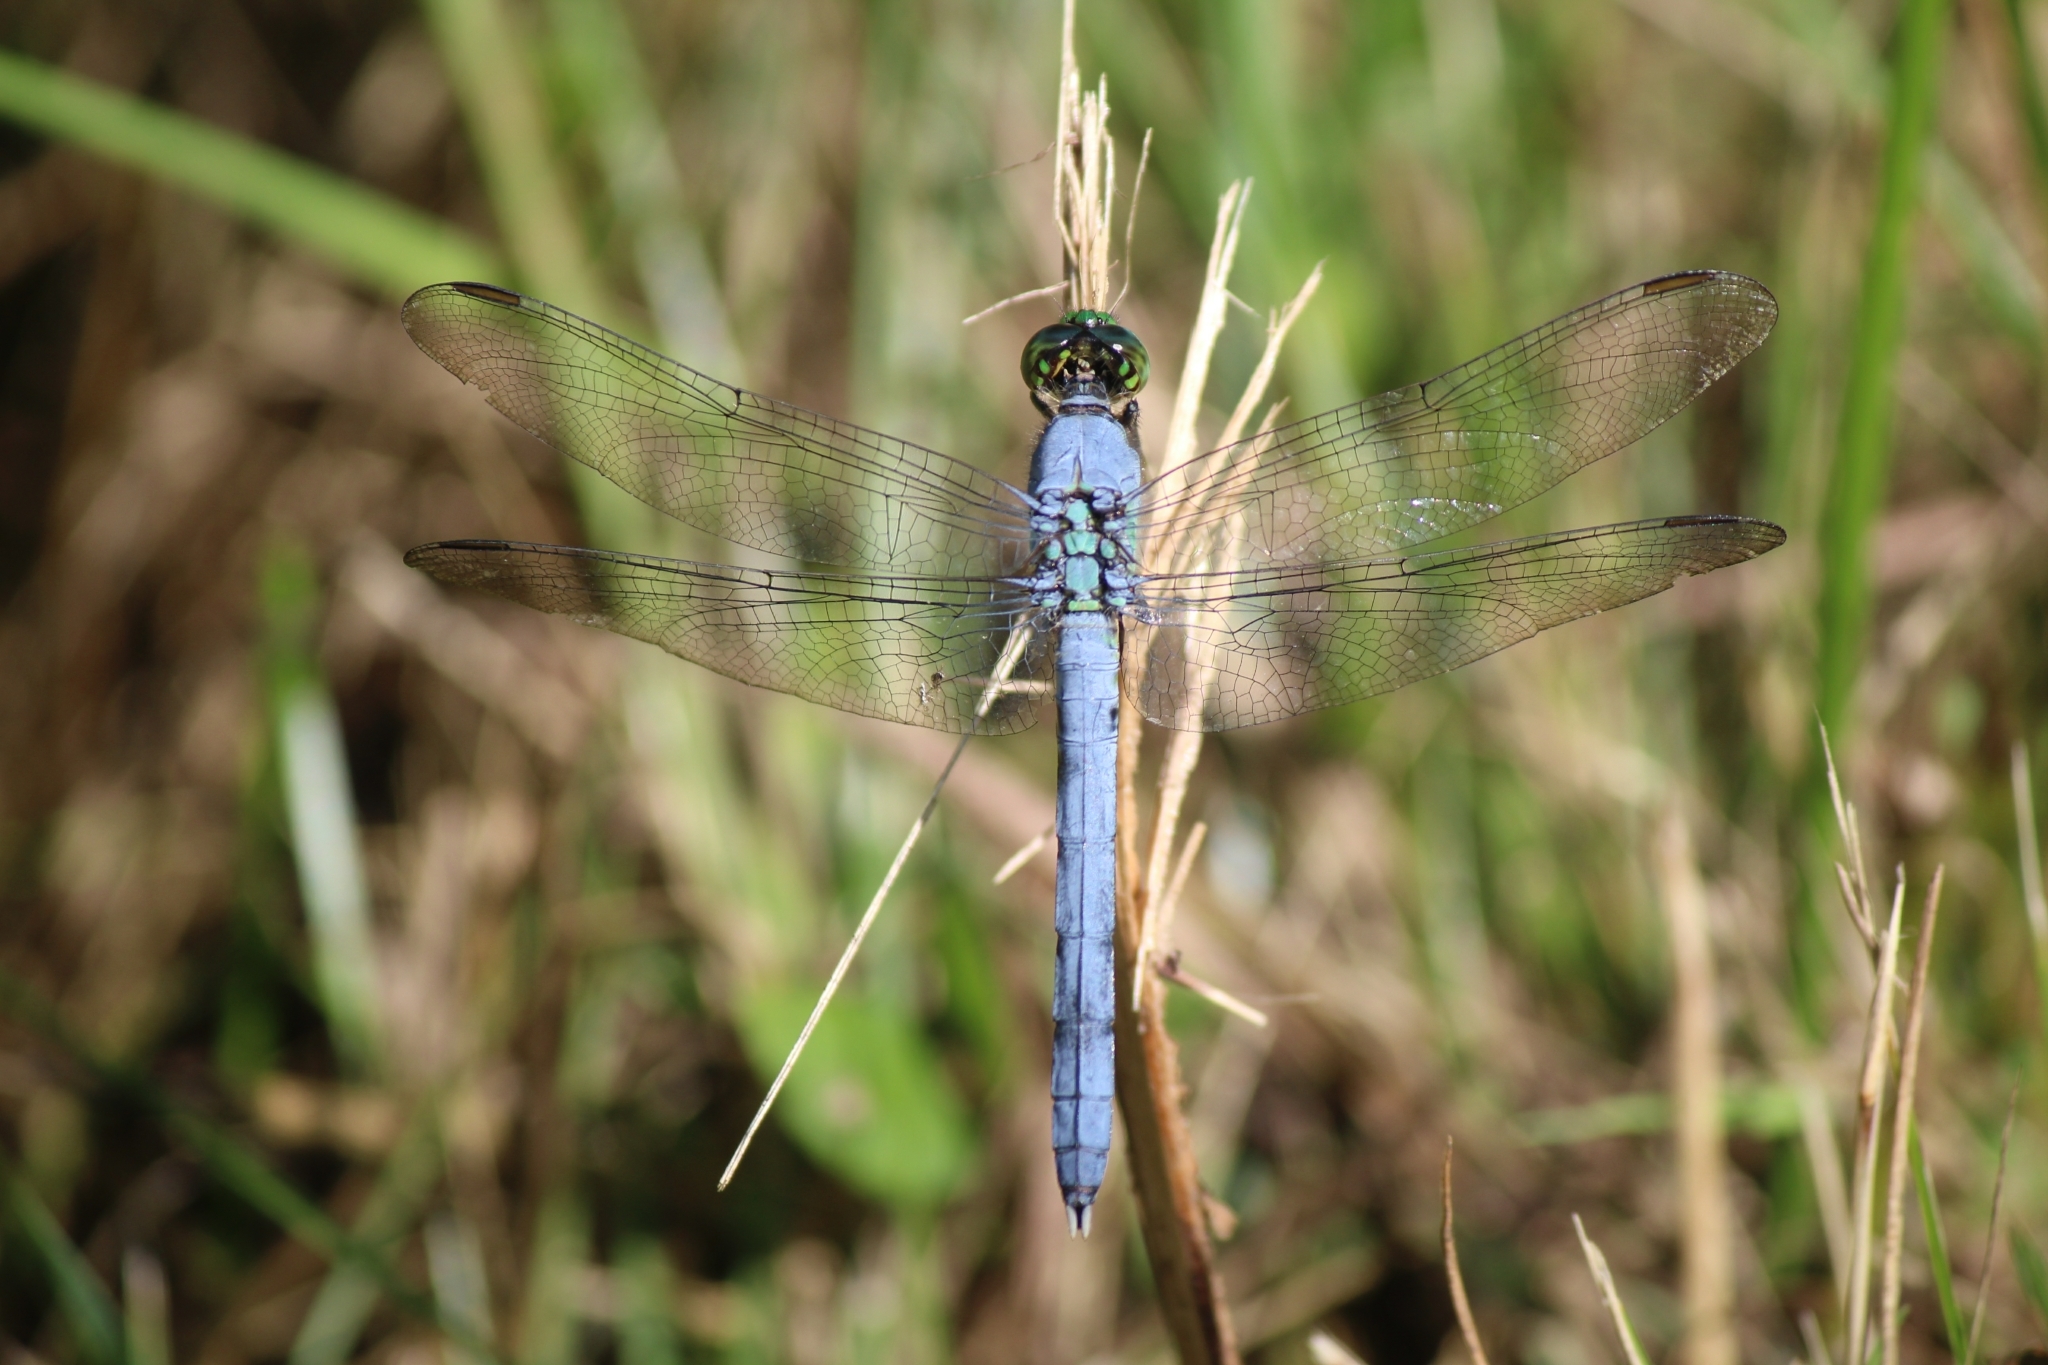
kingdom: Animalia
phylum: Arthropoda
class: Insecta
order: Odonata
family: Libellulidae
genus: Erythemis
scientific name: Erythemis simplicicollis
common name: Eastern pondhawk
